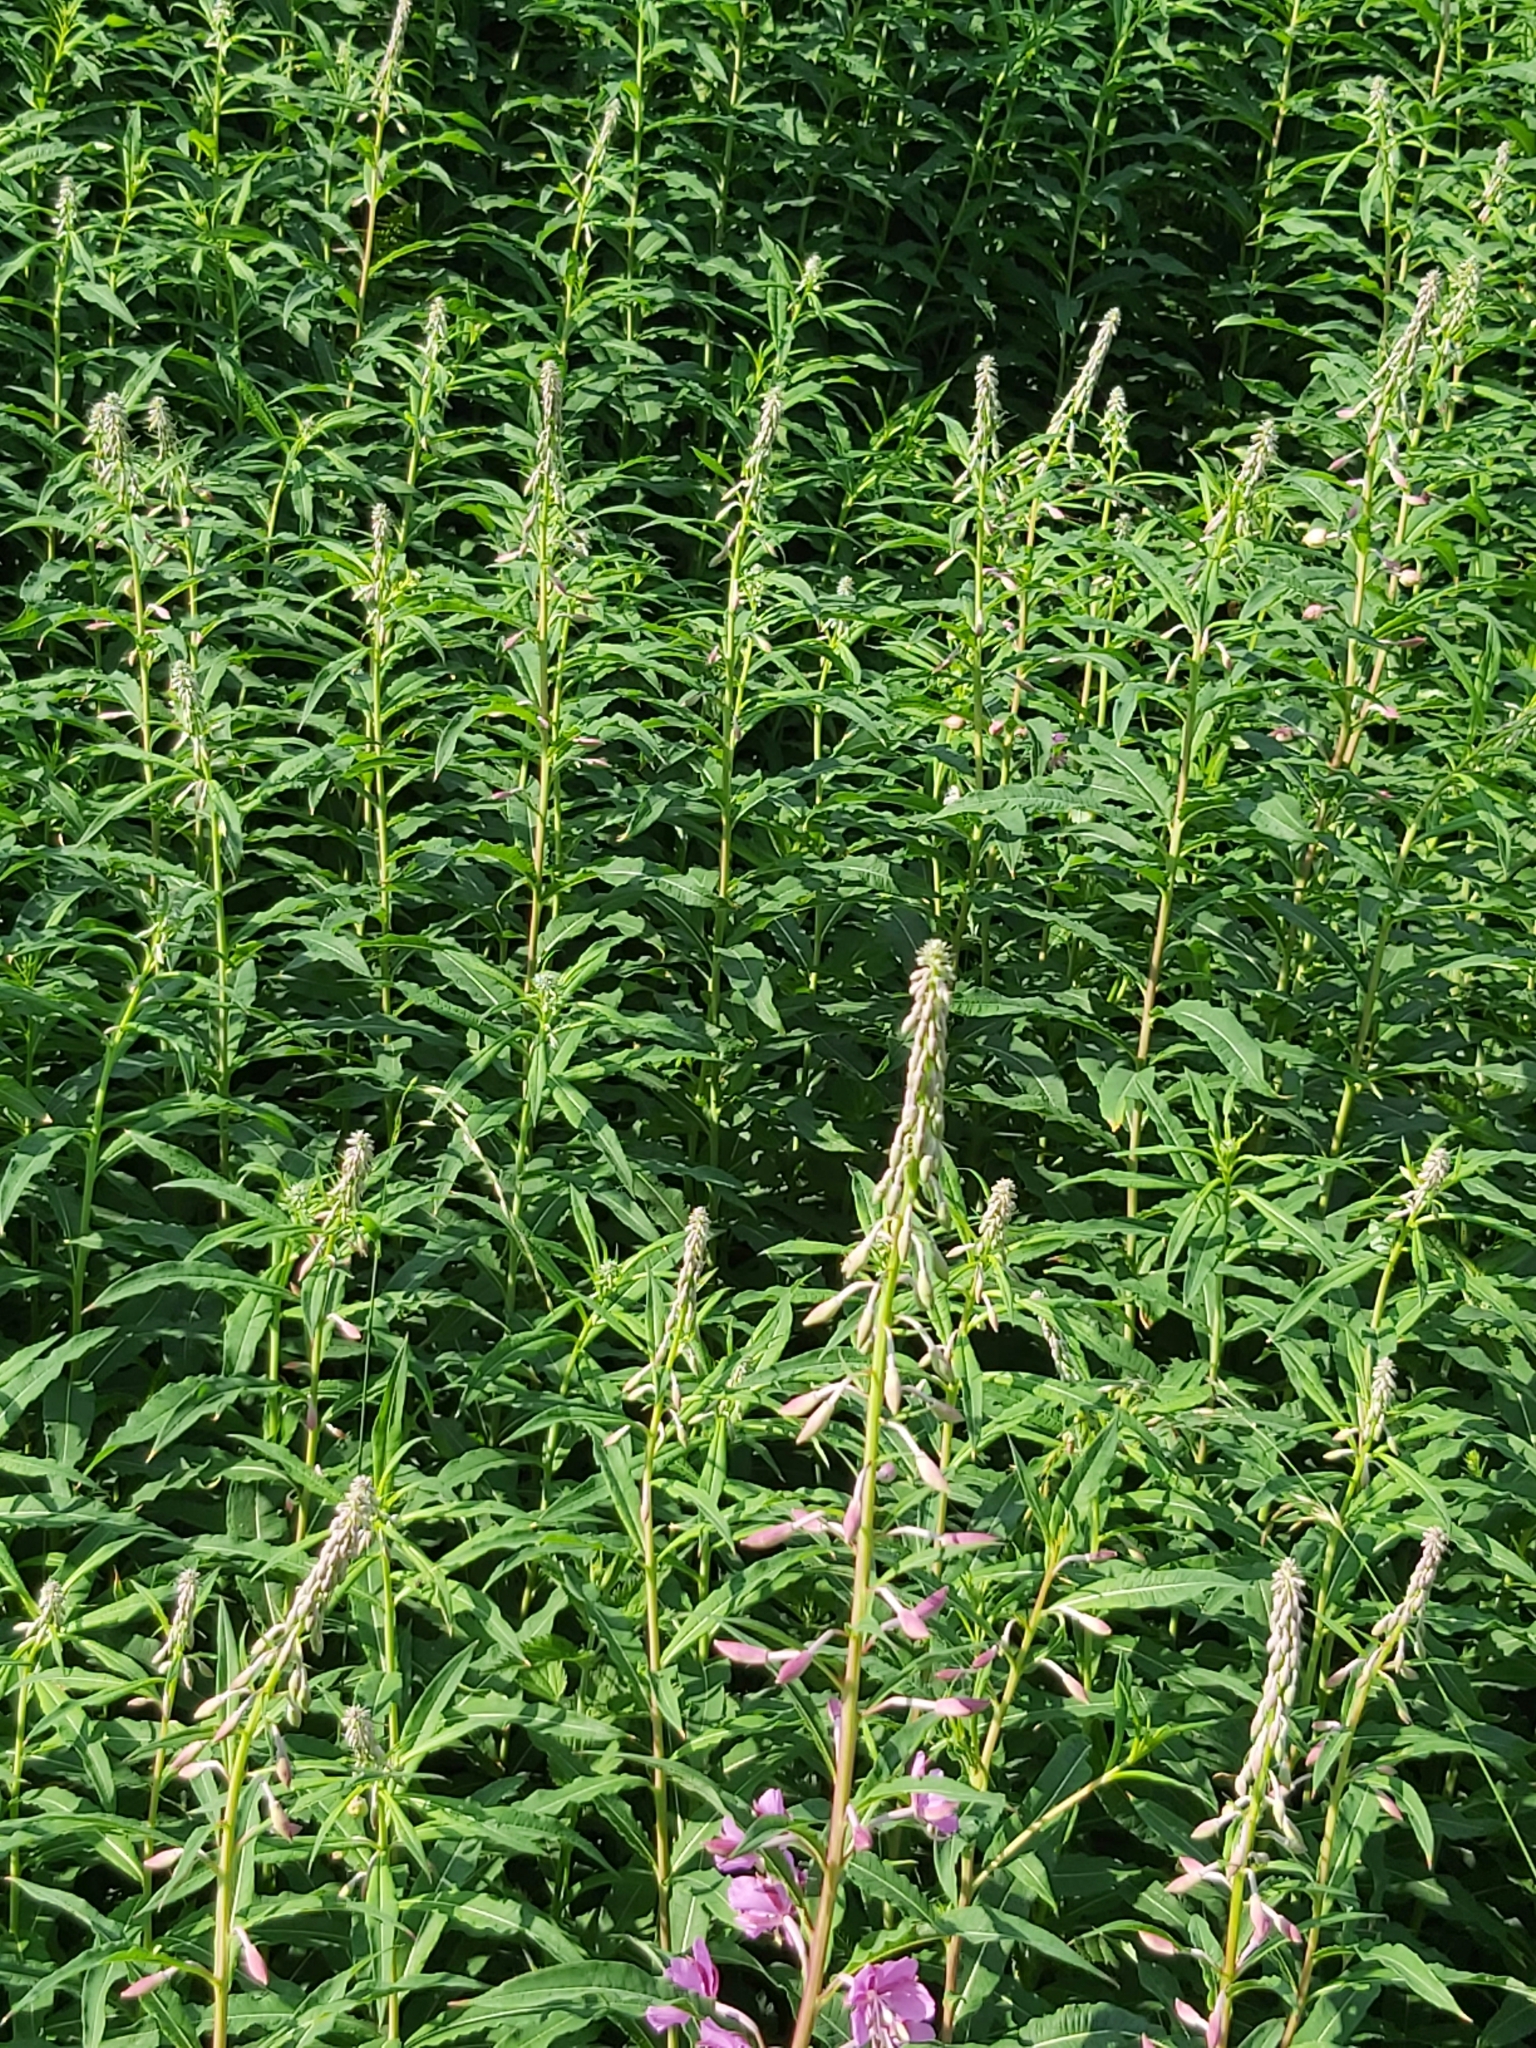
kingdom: Plantae
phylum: Tracheophyta
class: Magnoliopsida
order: Myrtales
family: Onagraceae
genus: Chamaenerion
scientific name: Chamaenerion angustifolium
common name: Fireweed
